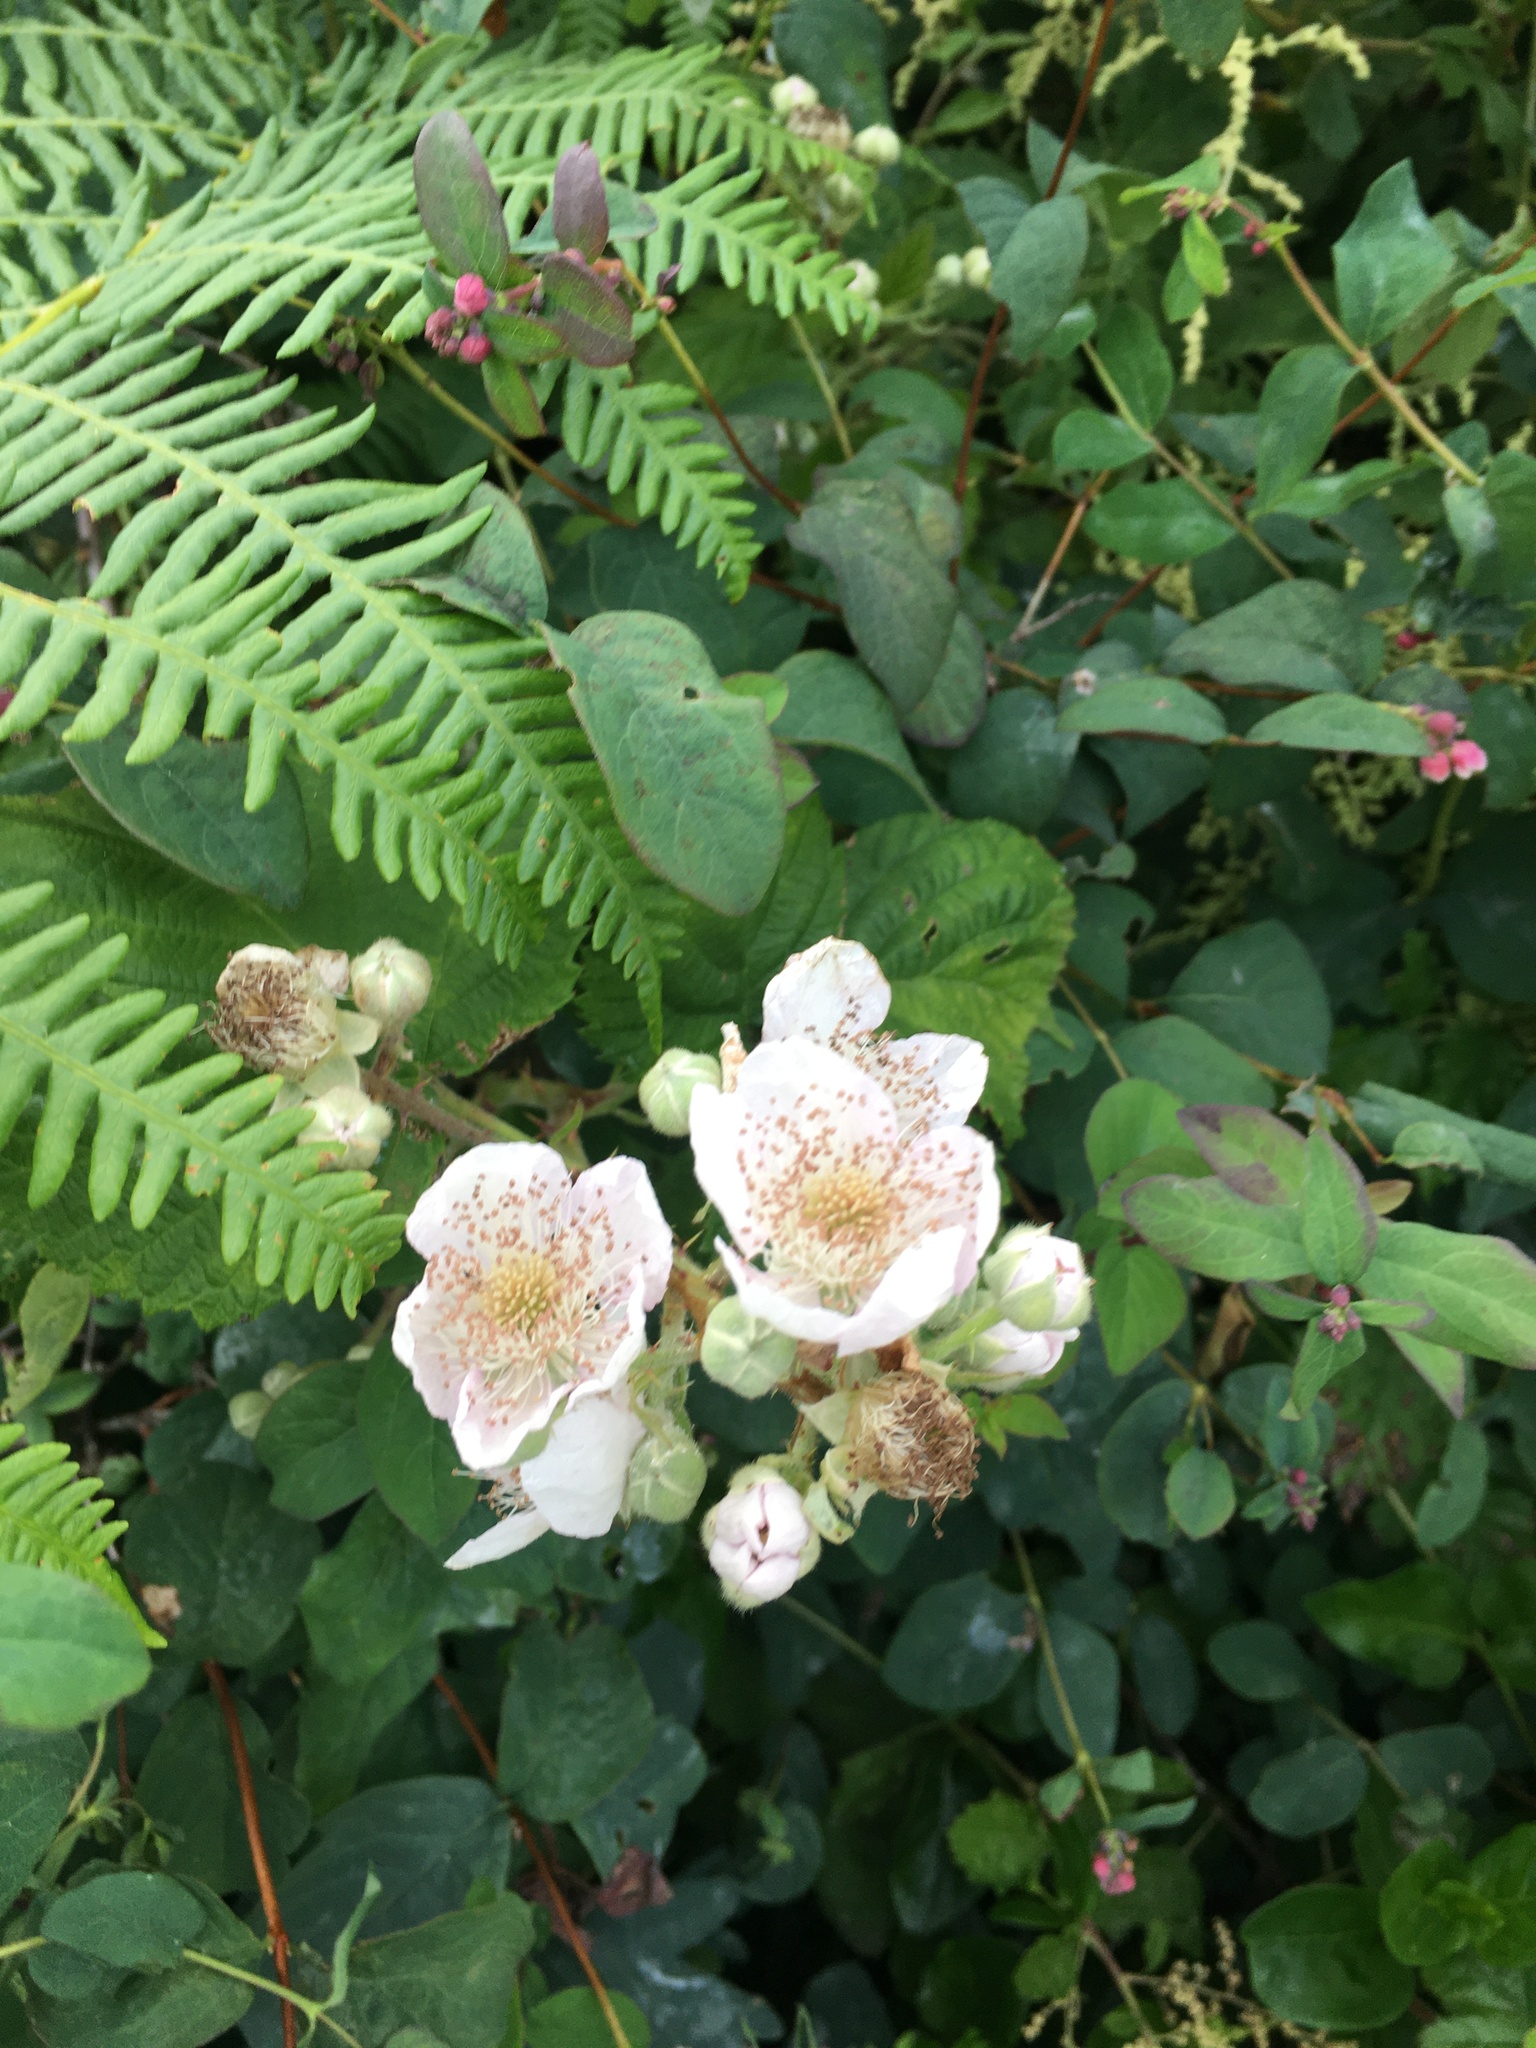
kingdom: Plantae
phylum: Tracheophyta
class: Magnoliopsida
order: Rosales
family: Rosaceae
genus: Rubus
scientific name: Rubus armeniacus
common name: Himalayan blackberry
